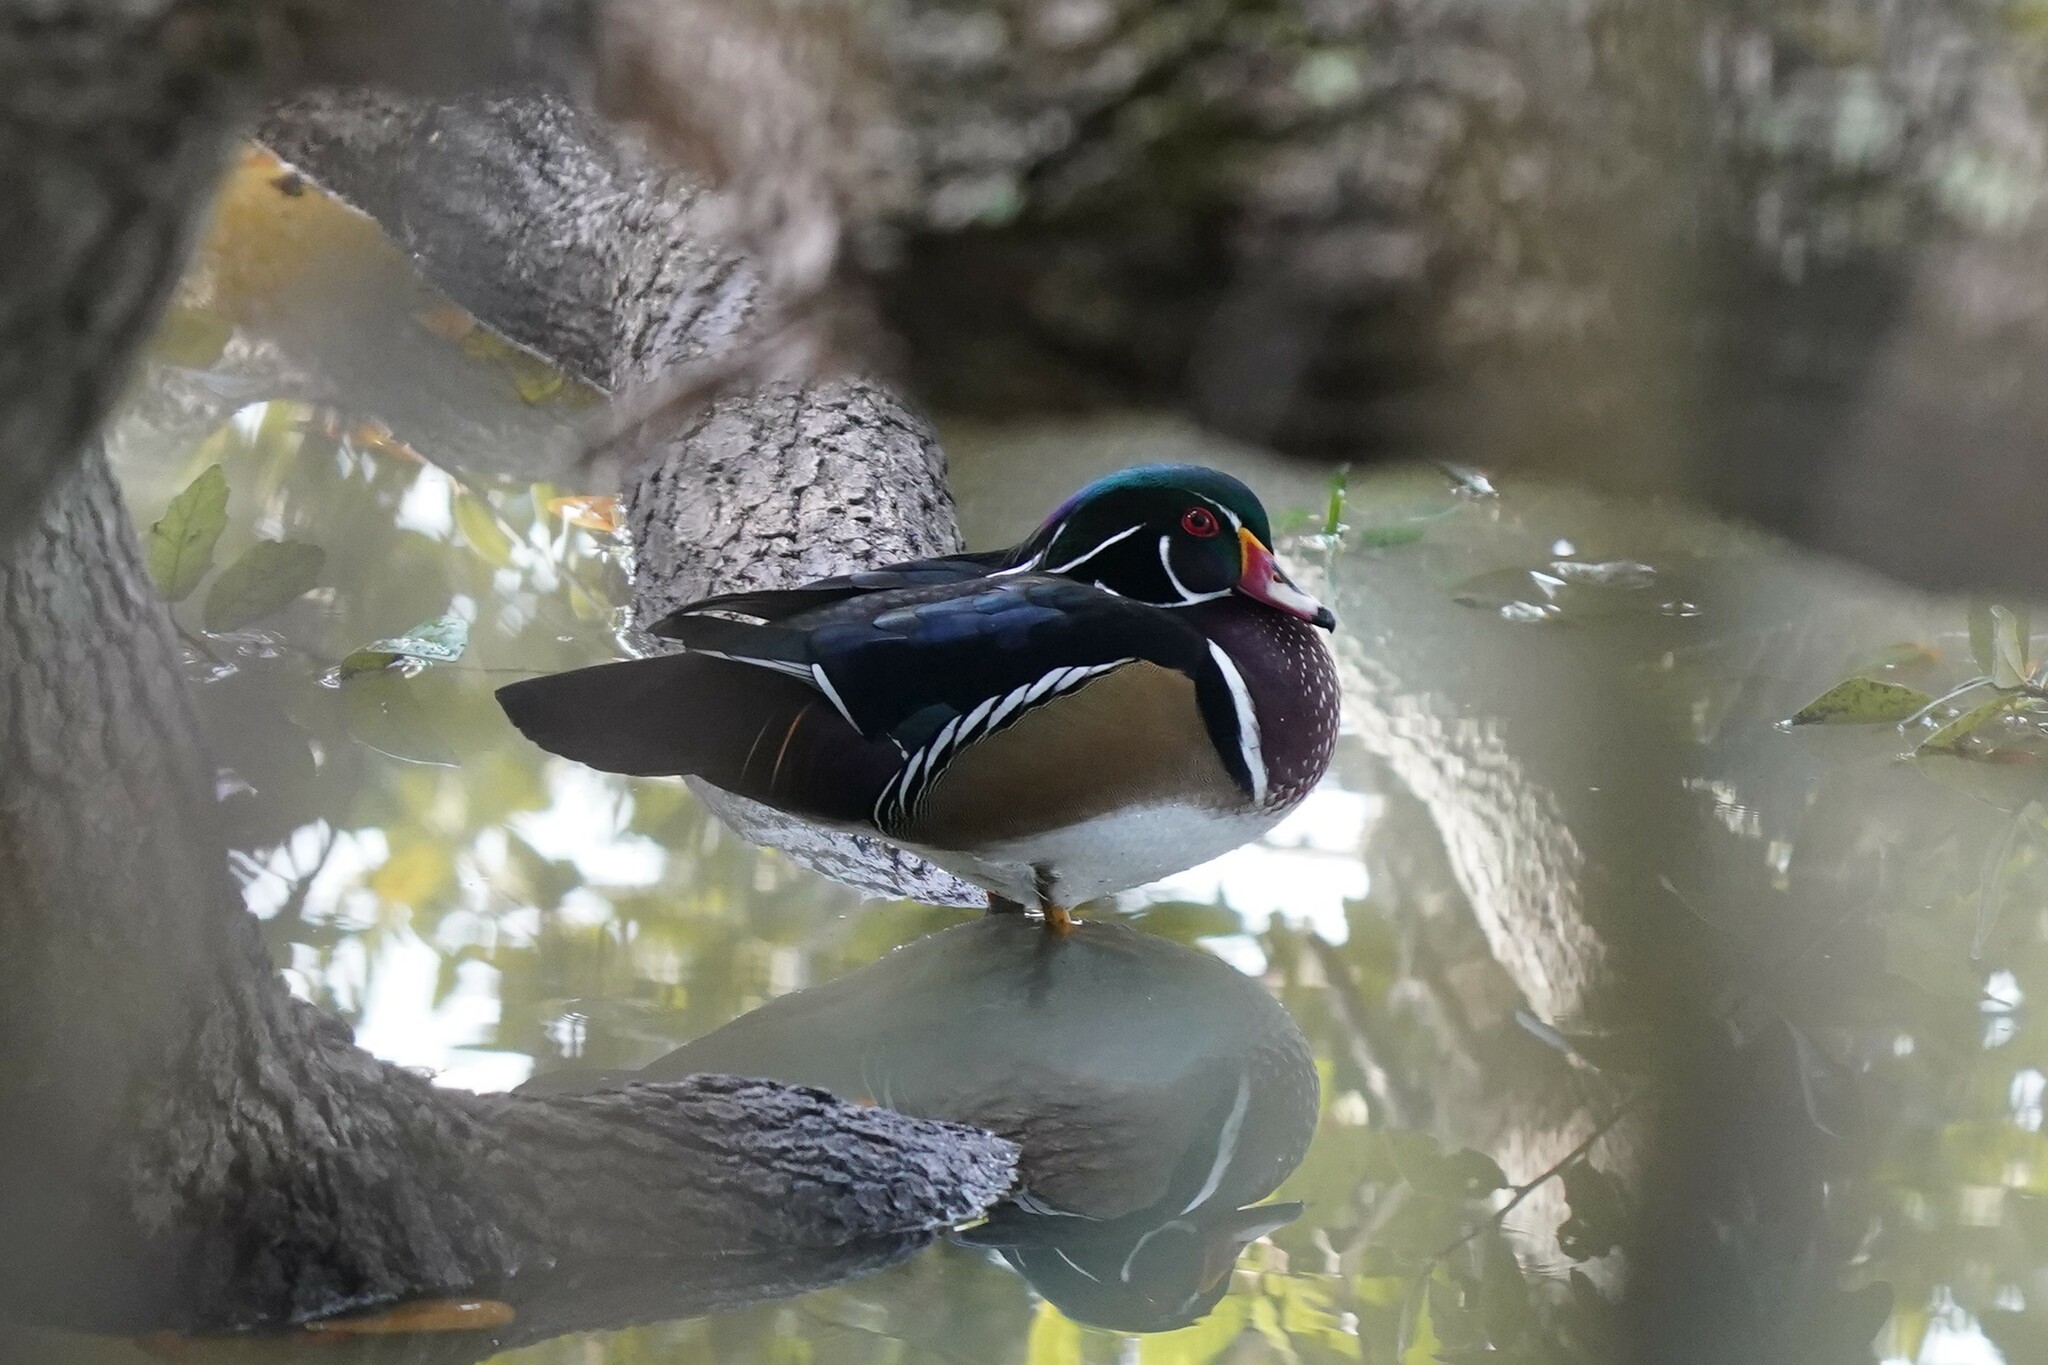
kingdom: Animalia
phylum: Chordata
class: Aves
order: Anseriformes
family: Anatidae
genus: Aix
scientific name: Aix sponsa
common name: Wood duck
